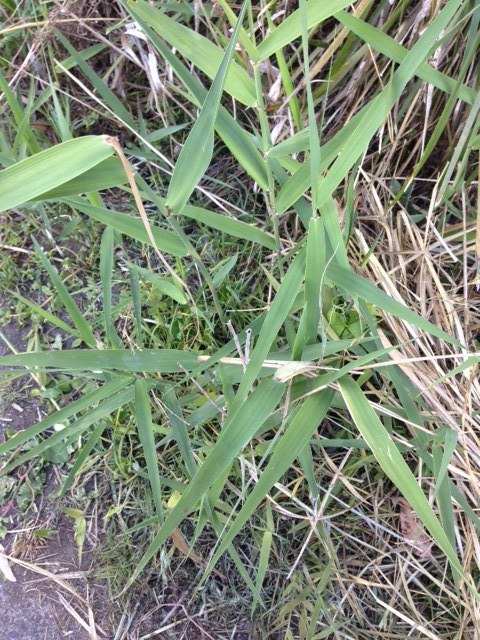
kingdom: Plantae
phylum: Tracheophyta
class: Liliopsida
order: Poales
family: Poaceae
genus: Phragmites
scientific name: Phragmites australis
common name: Common reed
